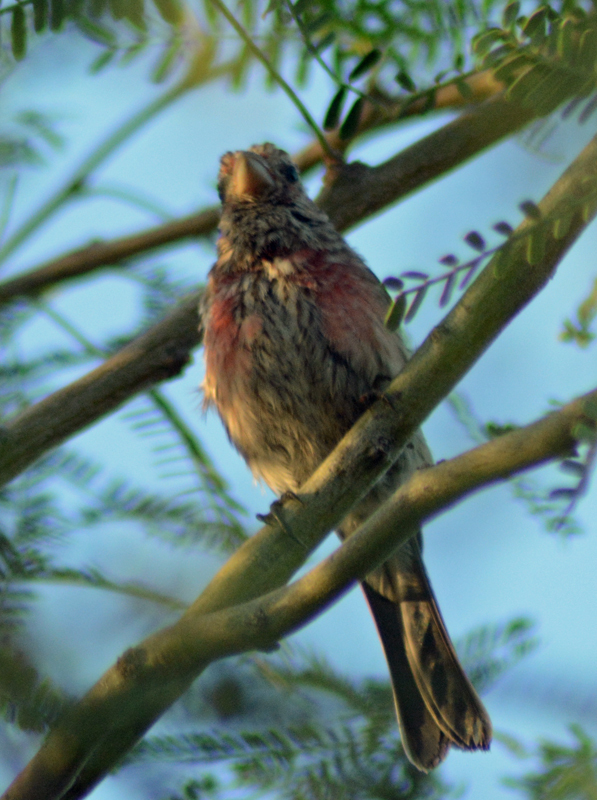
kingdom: Animalia
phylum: Chordata
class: Aves
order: Passeriformes
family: Fringillidae
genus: Haemorhous
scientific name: Haemorhous mexicanus
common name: House finch
